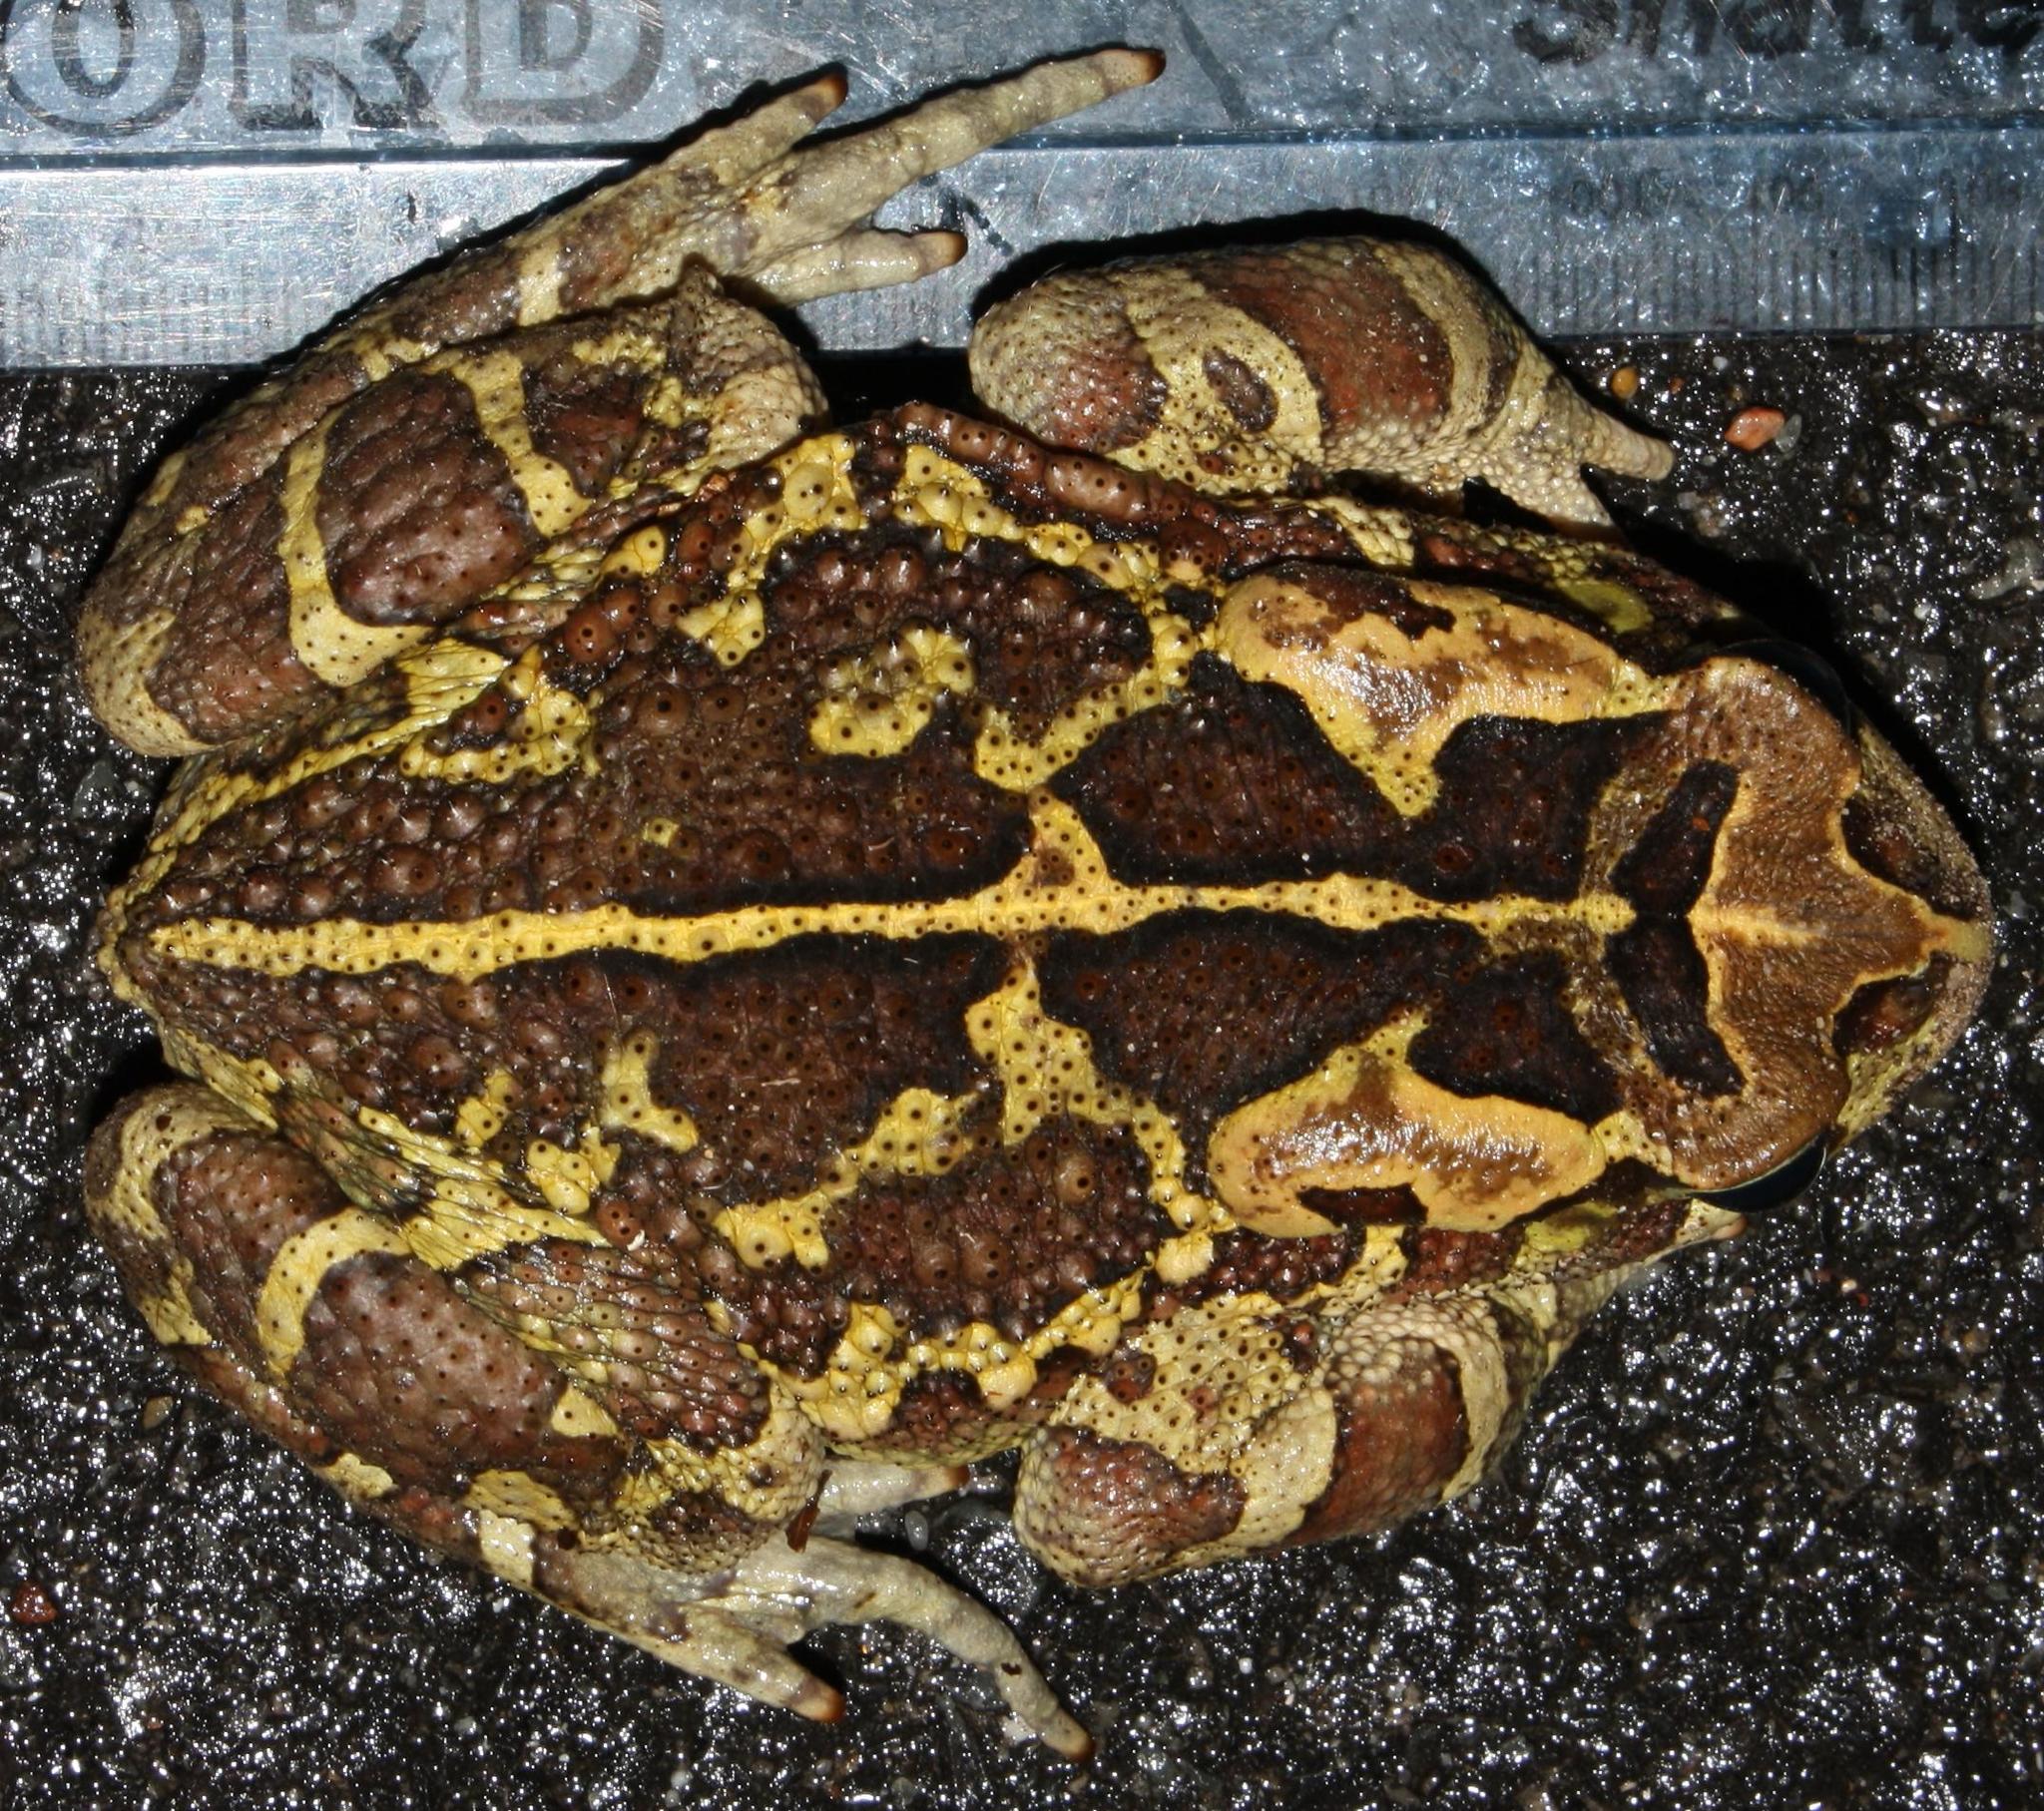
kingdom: Animalia
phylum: Chordata
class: Amphibia
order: Anura
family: Bufonidae
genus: Sclerophrys
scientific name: Sclerophrys pantherina
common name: Panther toad
